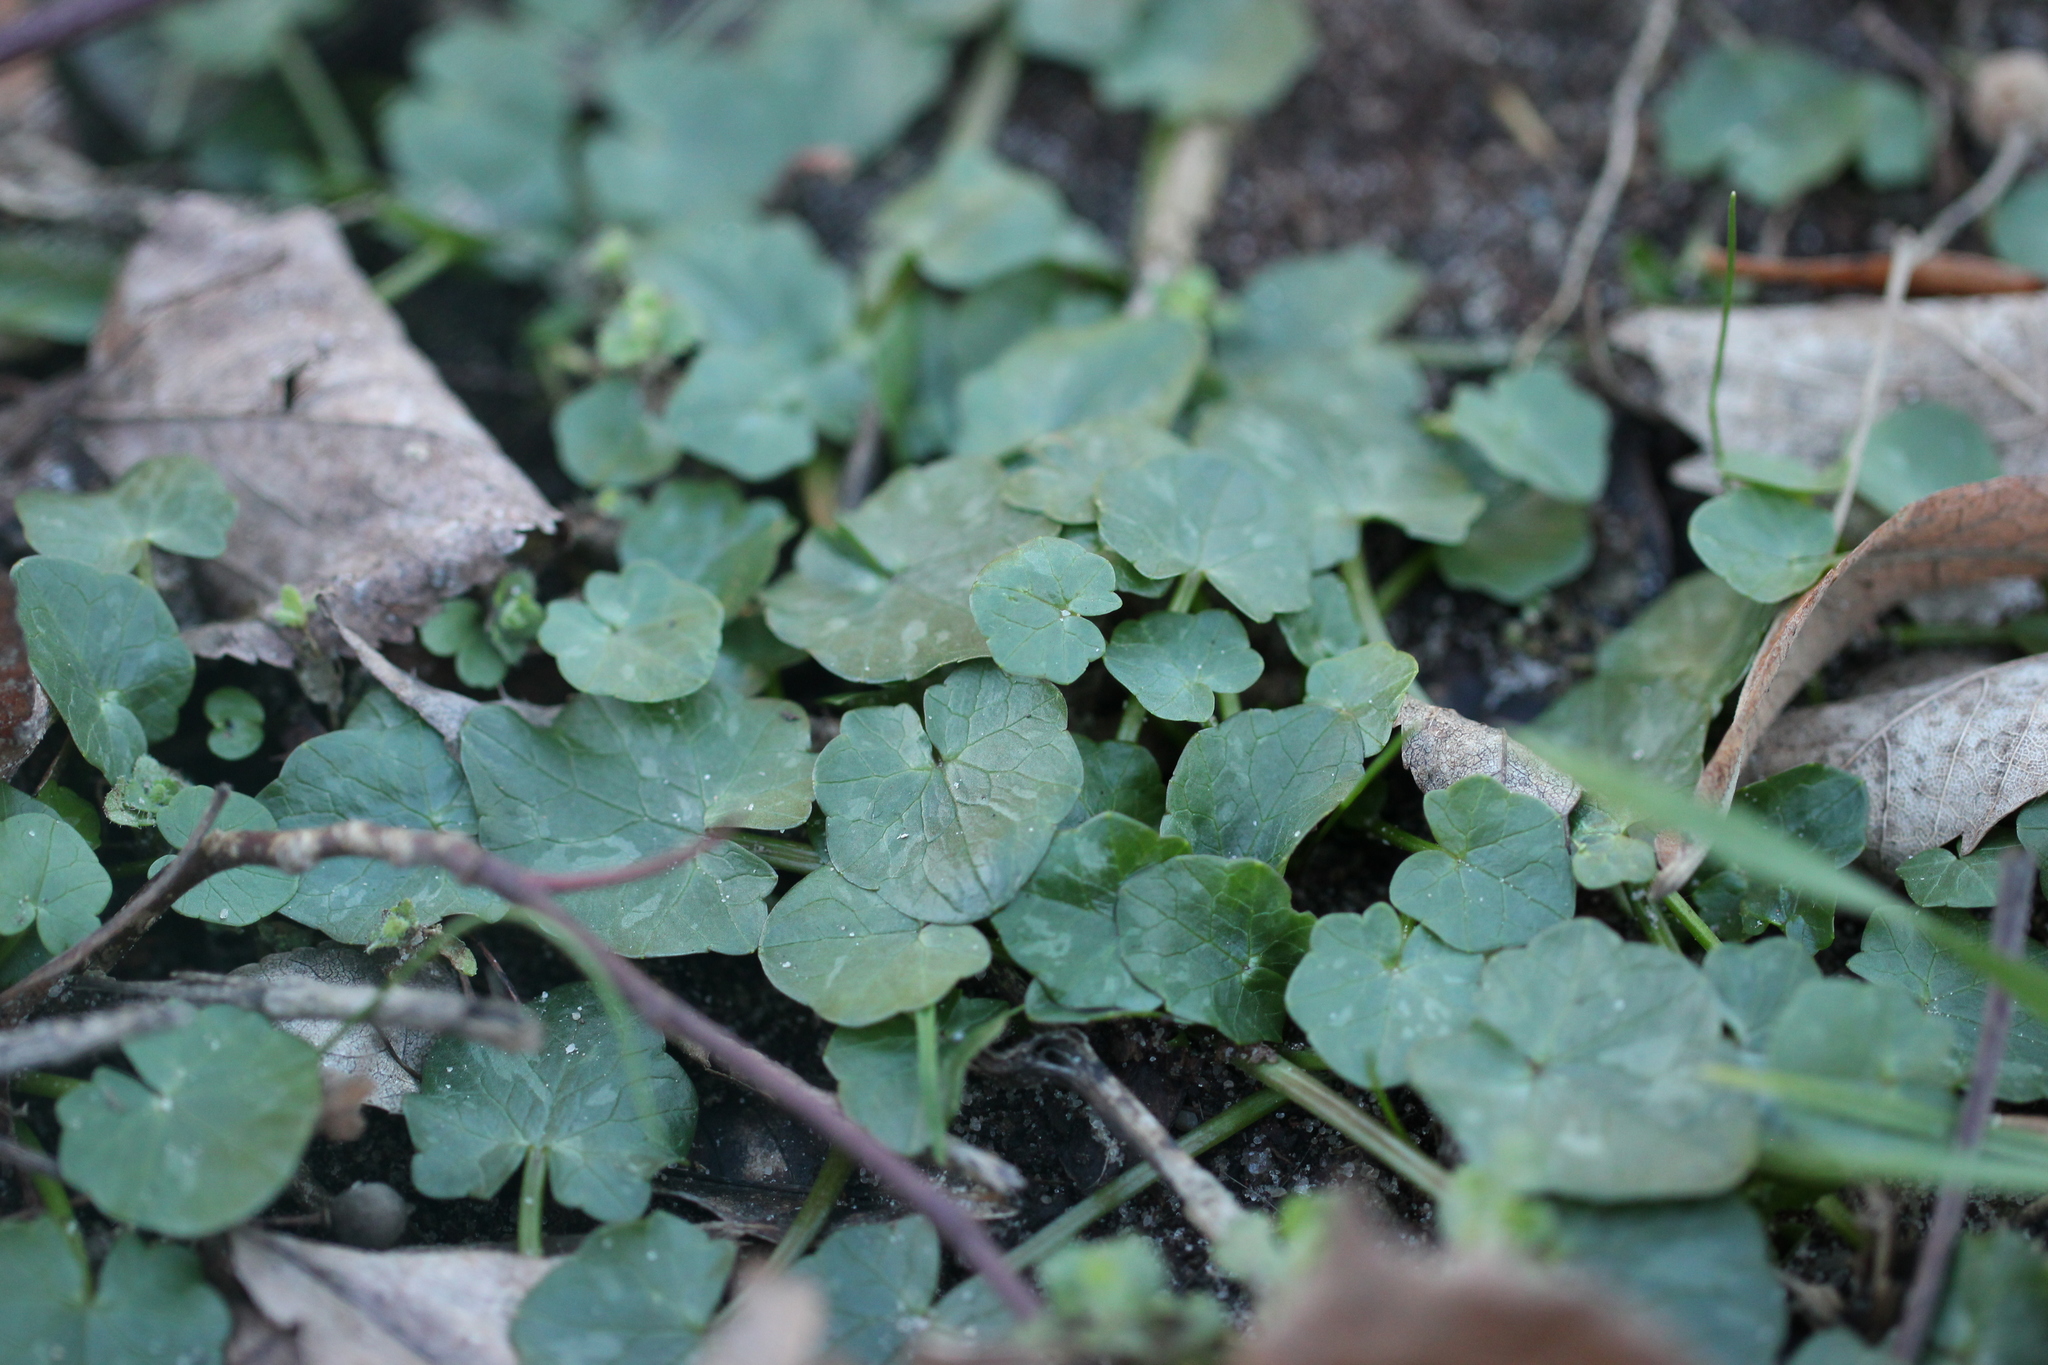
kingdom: Plantae
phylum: Tracheophyta
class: Magnoliopsida
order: Ranunculales
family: Ranunculaceae
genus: Ficaria
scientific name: Ficaria verna
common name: Lesser celandine
